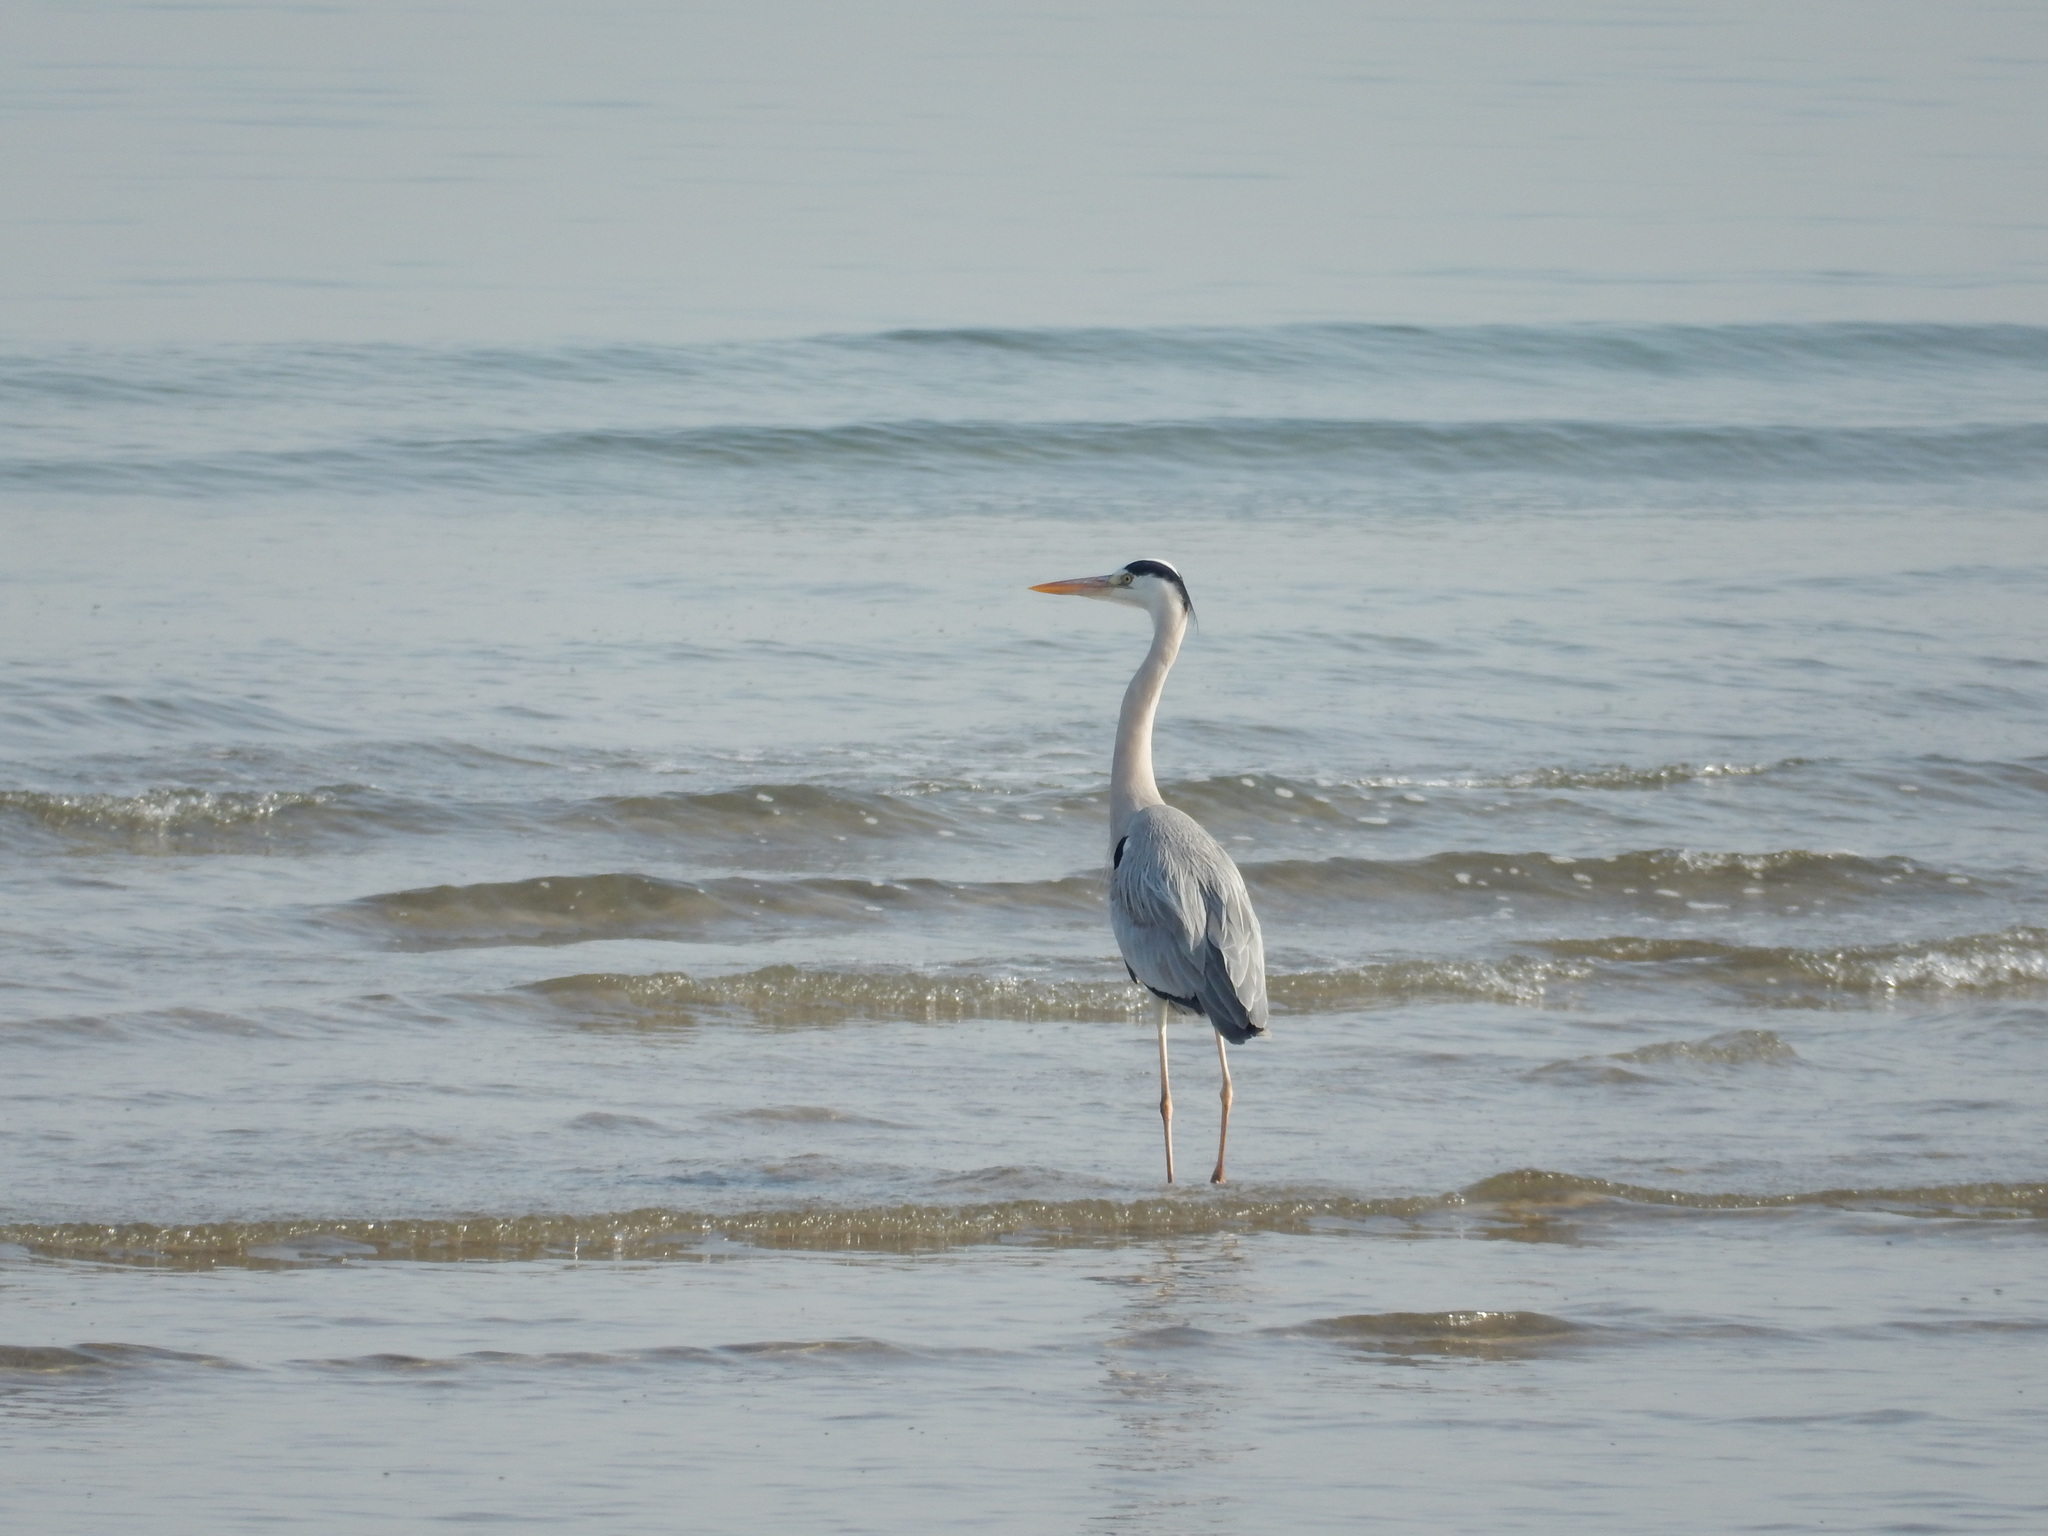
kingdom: Animalia
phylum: Chordata
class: Aves
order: Pelecaniformes
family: Ardeidae
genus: Ardea
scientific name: Ardea cinerea
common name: Grey heron
